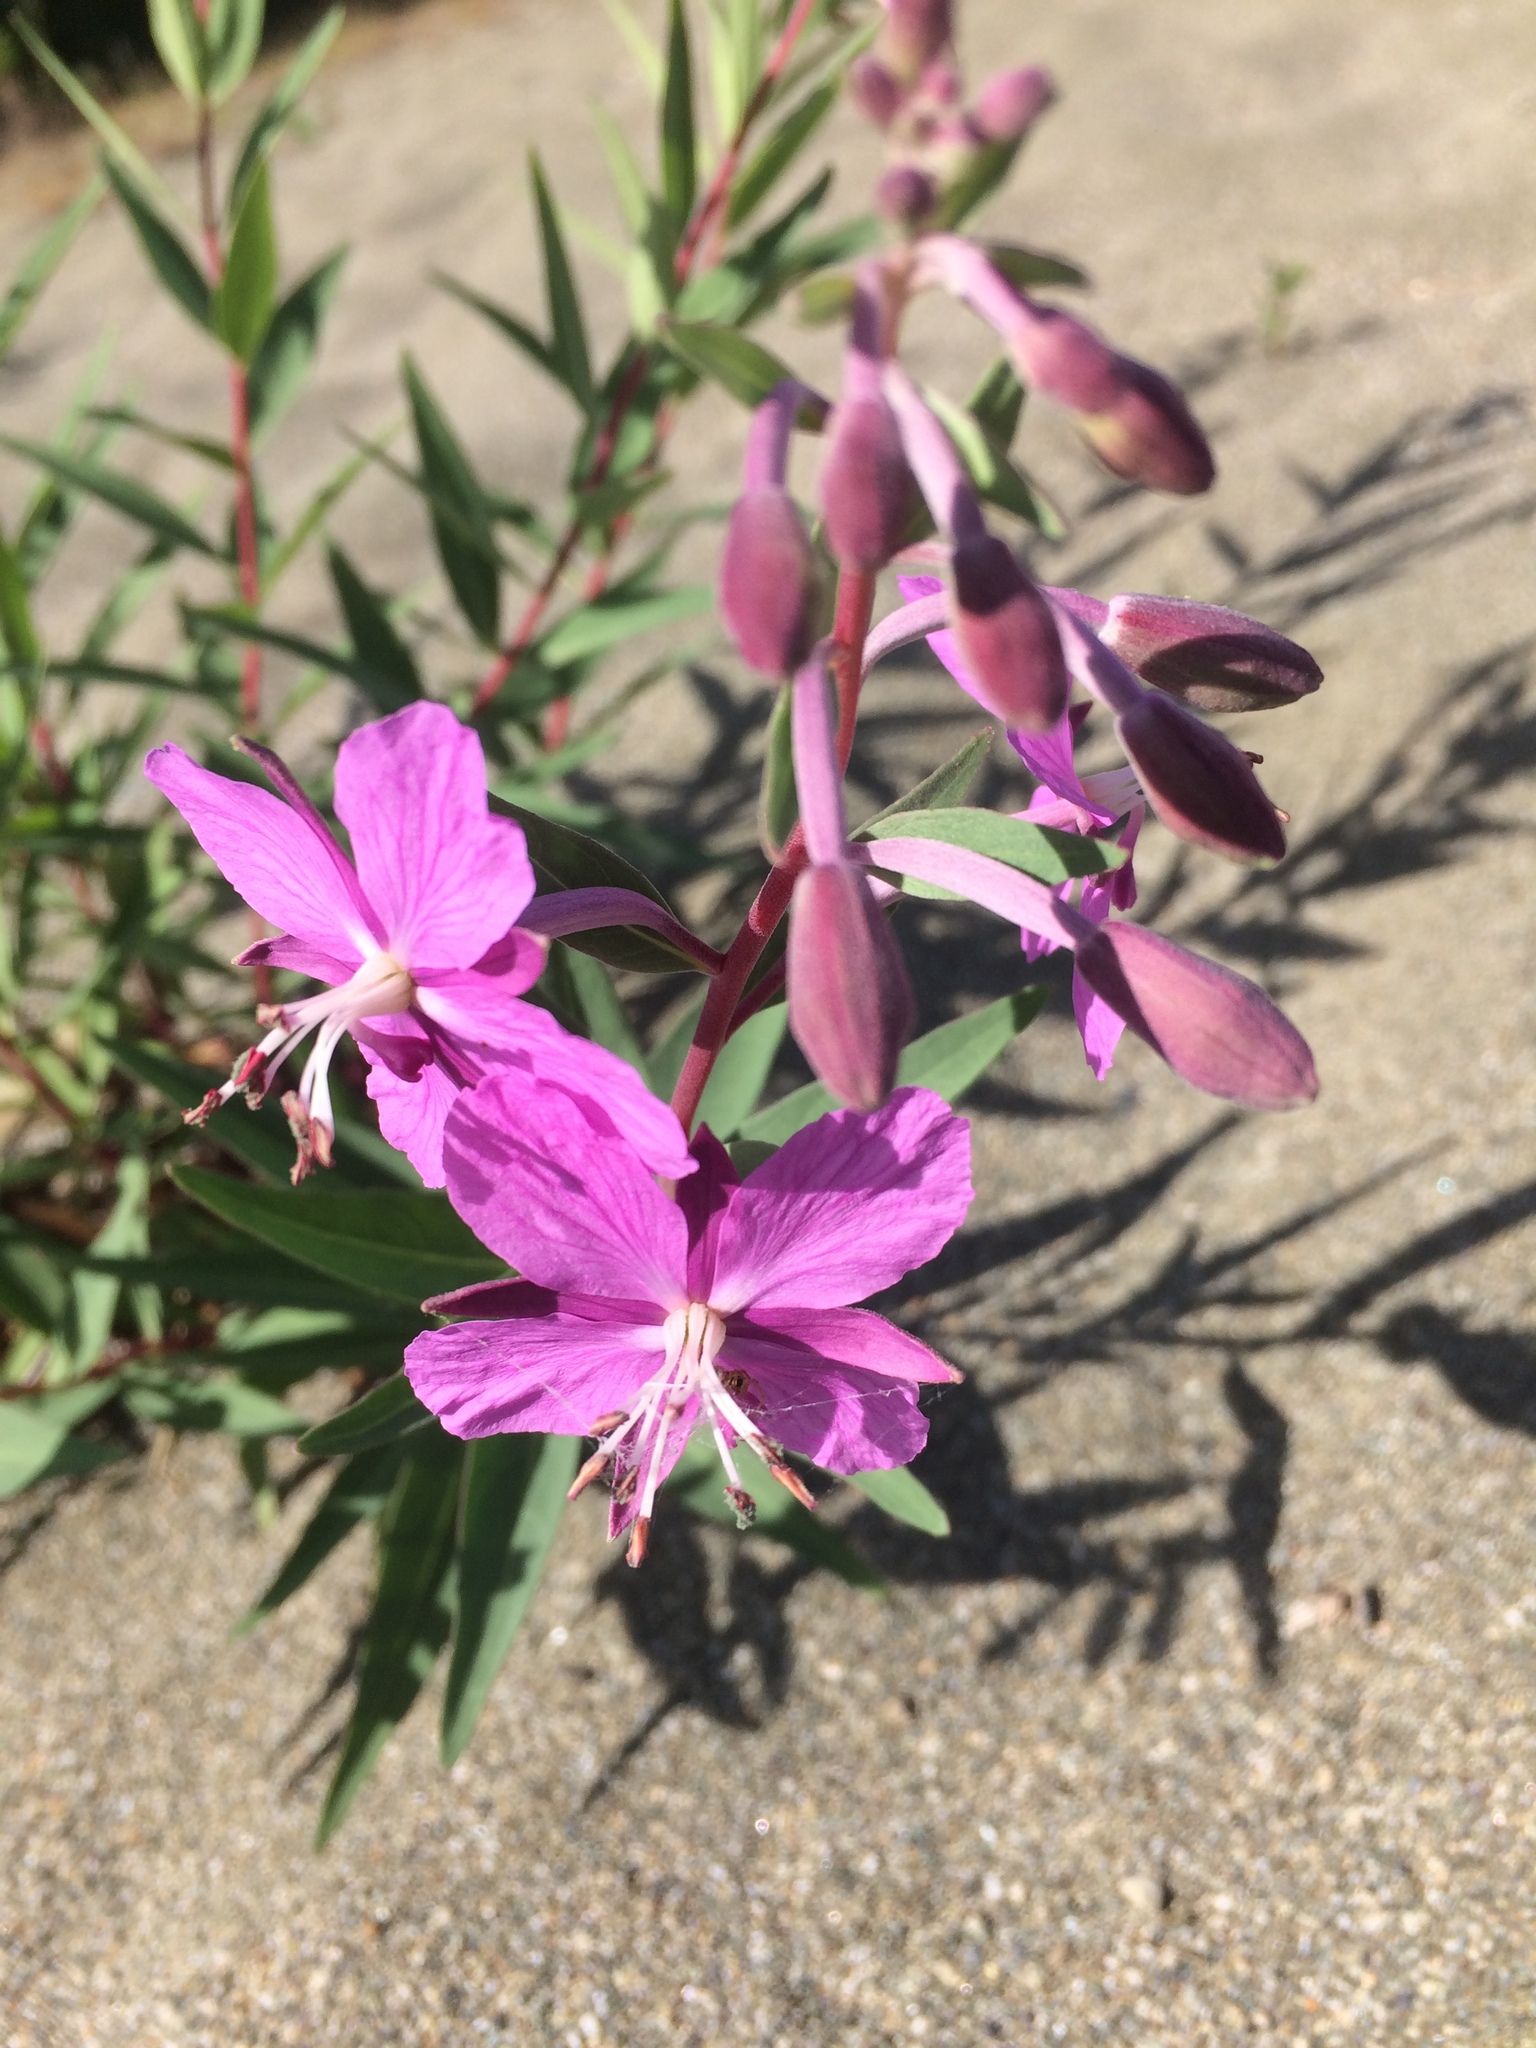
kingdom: Plantae
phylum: Tracheophyta
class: Magnoliopsida
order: Myrtales
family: Onagraceae
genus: Chamaenerion
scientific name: Chamaenerion latifolium
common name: Dwarf fireweed
